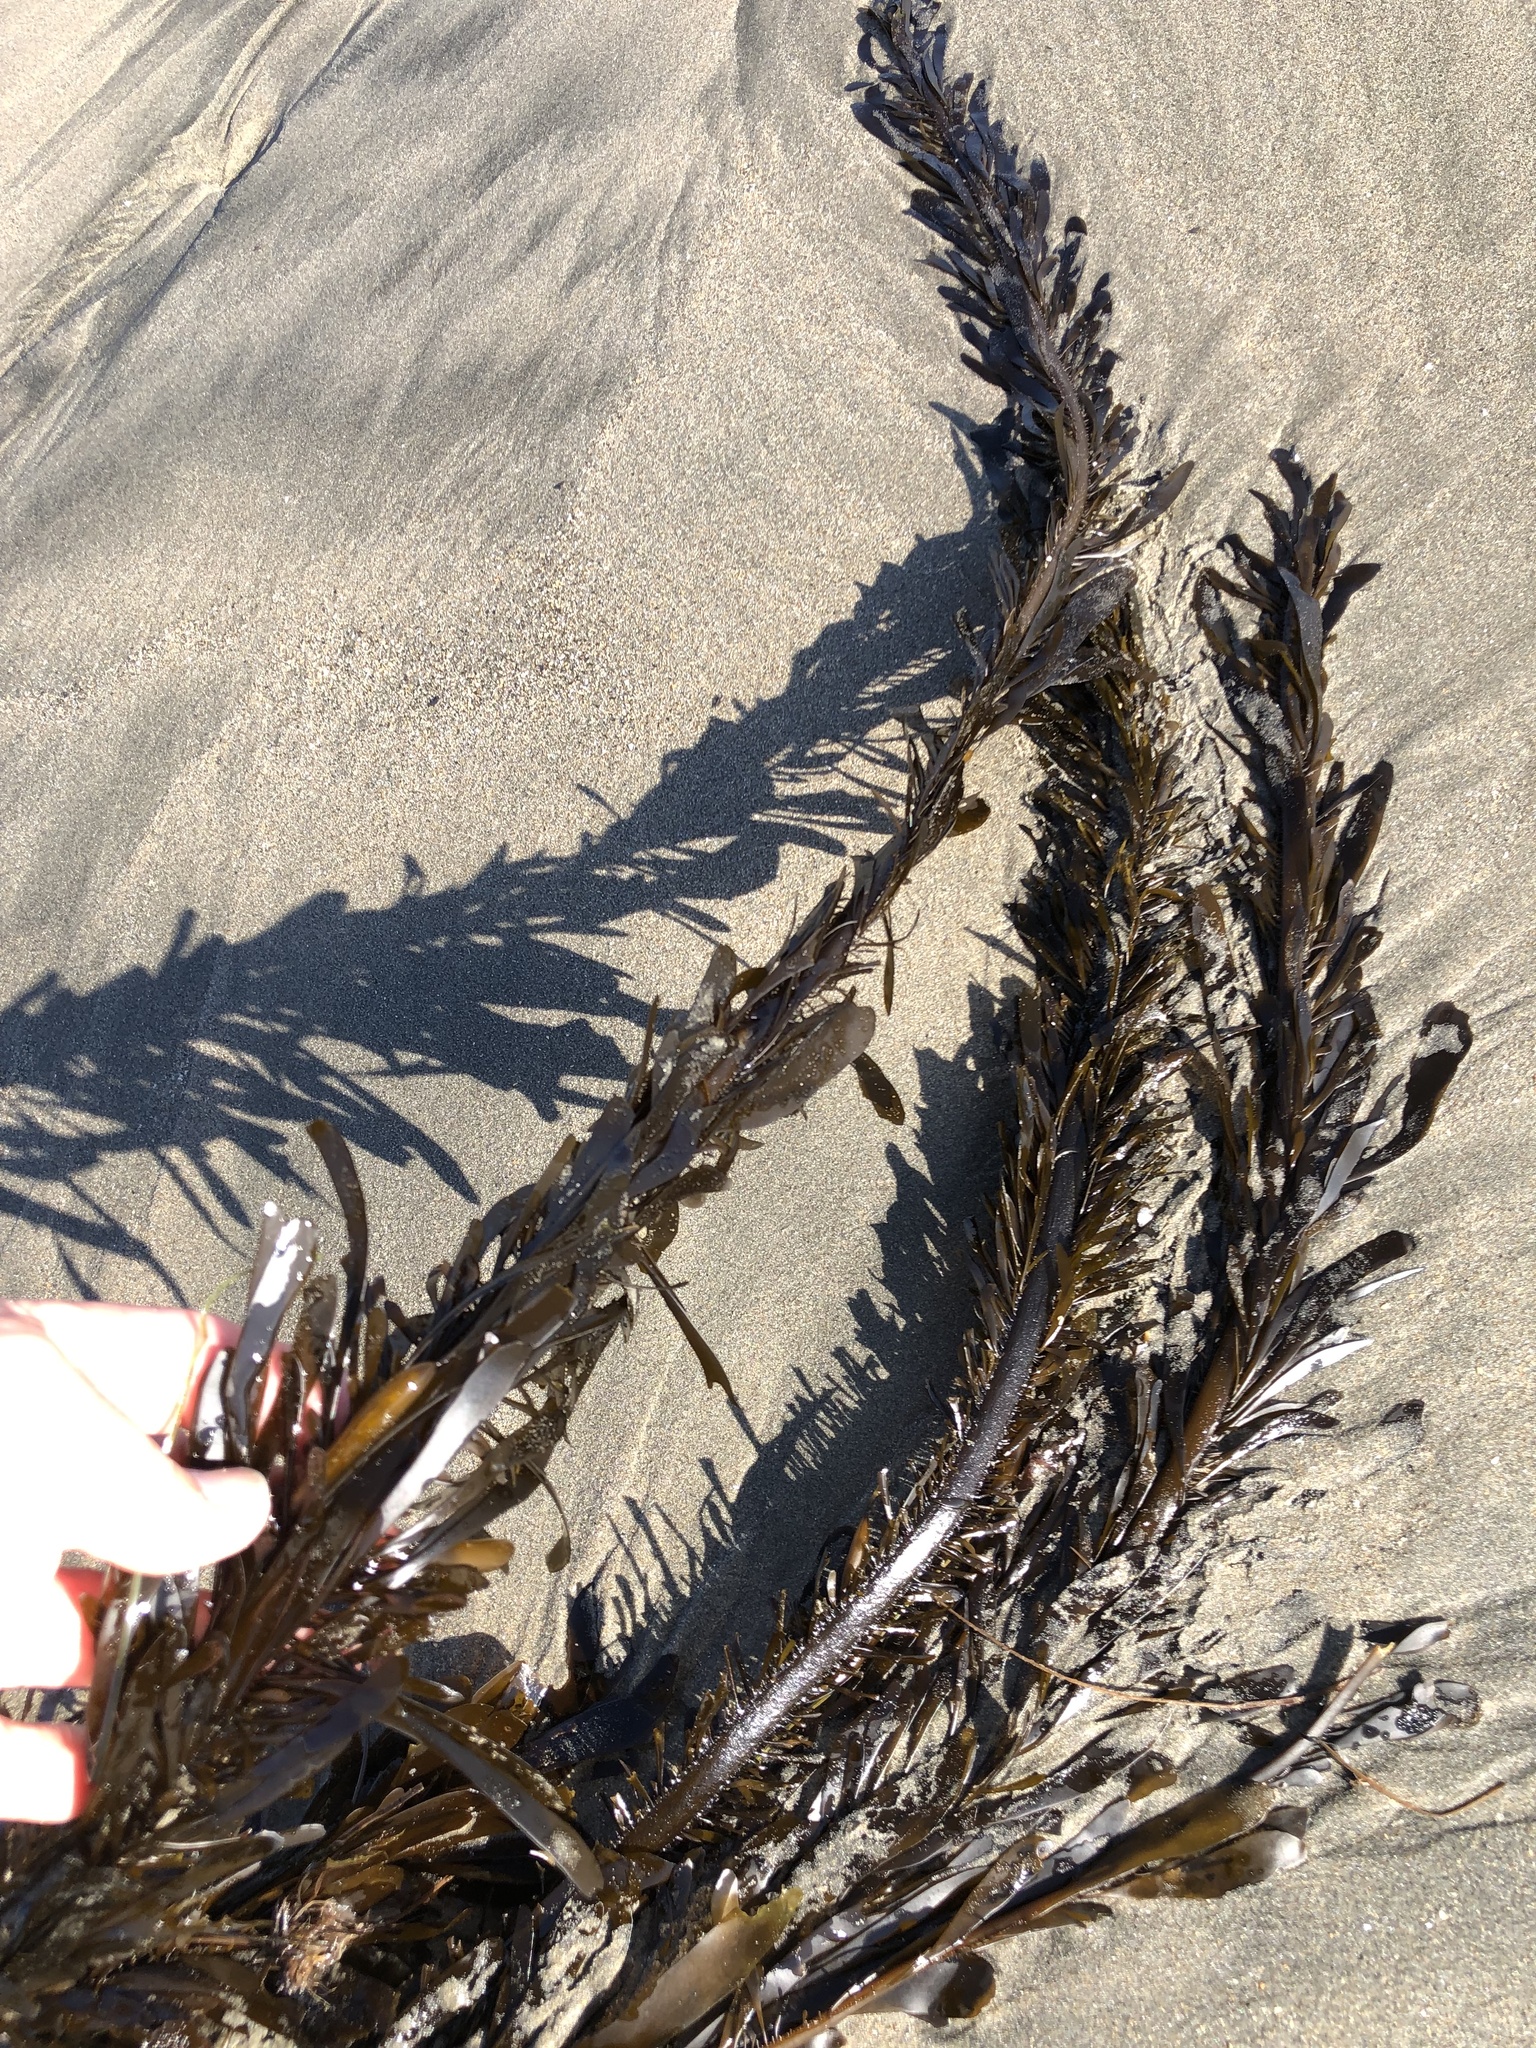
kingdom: Chromista
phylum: Ochrophyta
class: Phaeophyceae
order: Laminariales
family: Lessoniaceae
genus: Egregia
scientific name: Egregia menziesii
